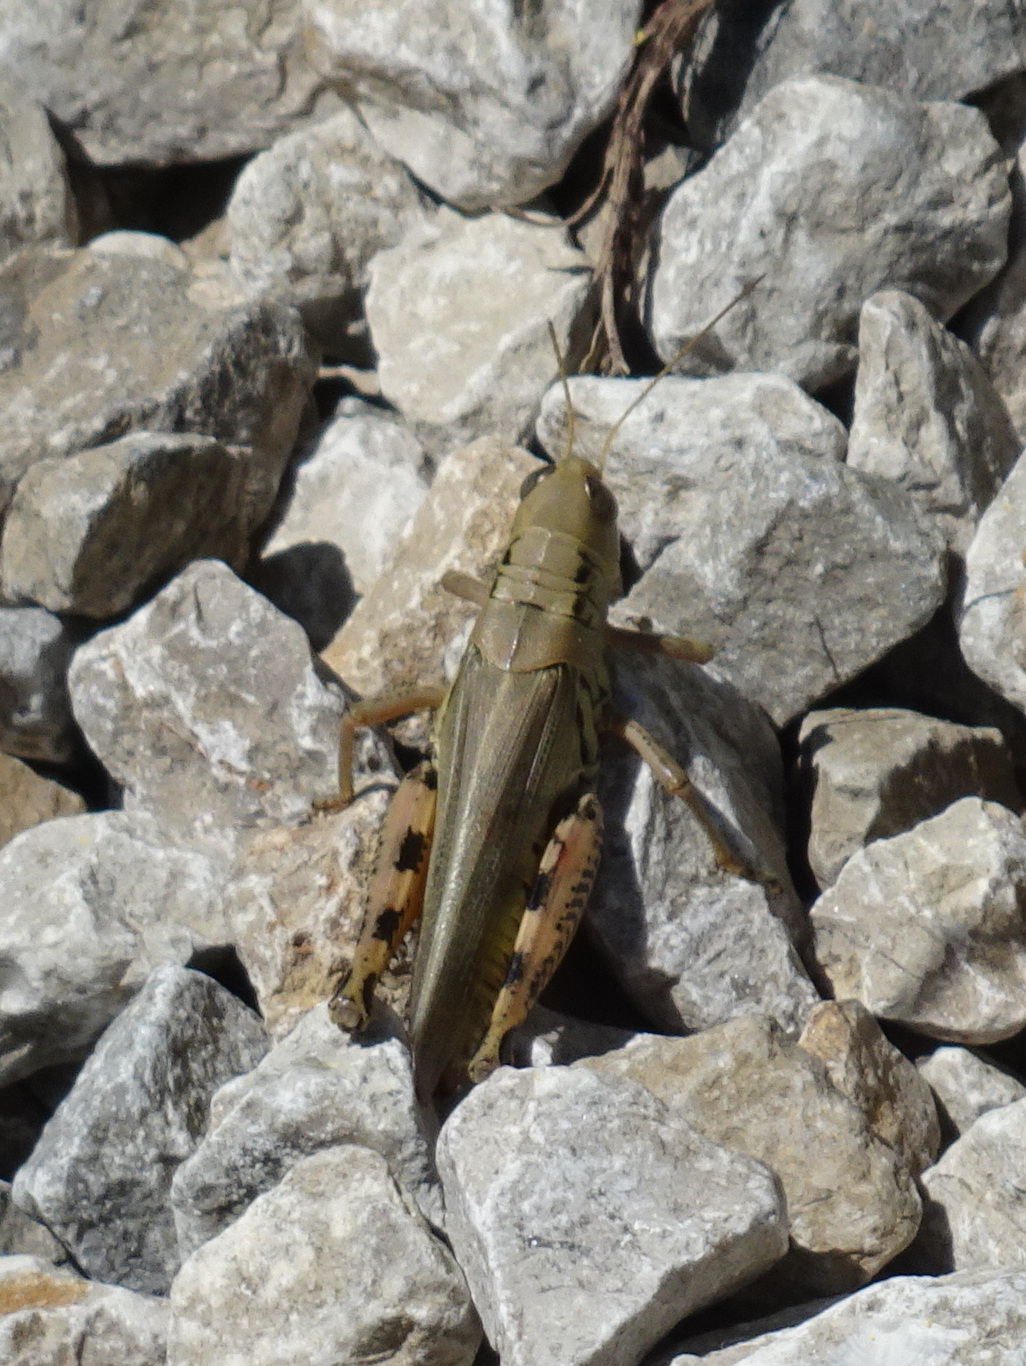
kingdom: Animalia
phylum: Arthropoda
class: Insecta
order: Orthoptera
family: Acrididae
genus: Melanoplus
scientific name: Melanoplus differentialis
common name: Differential grasshopper
